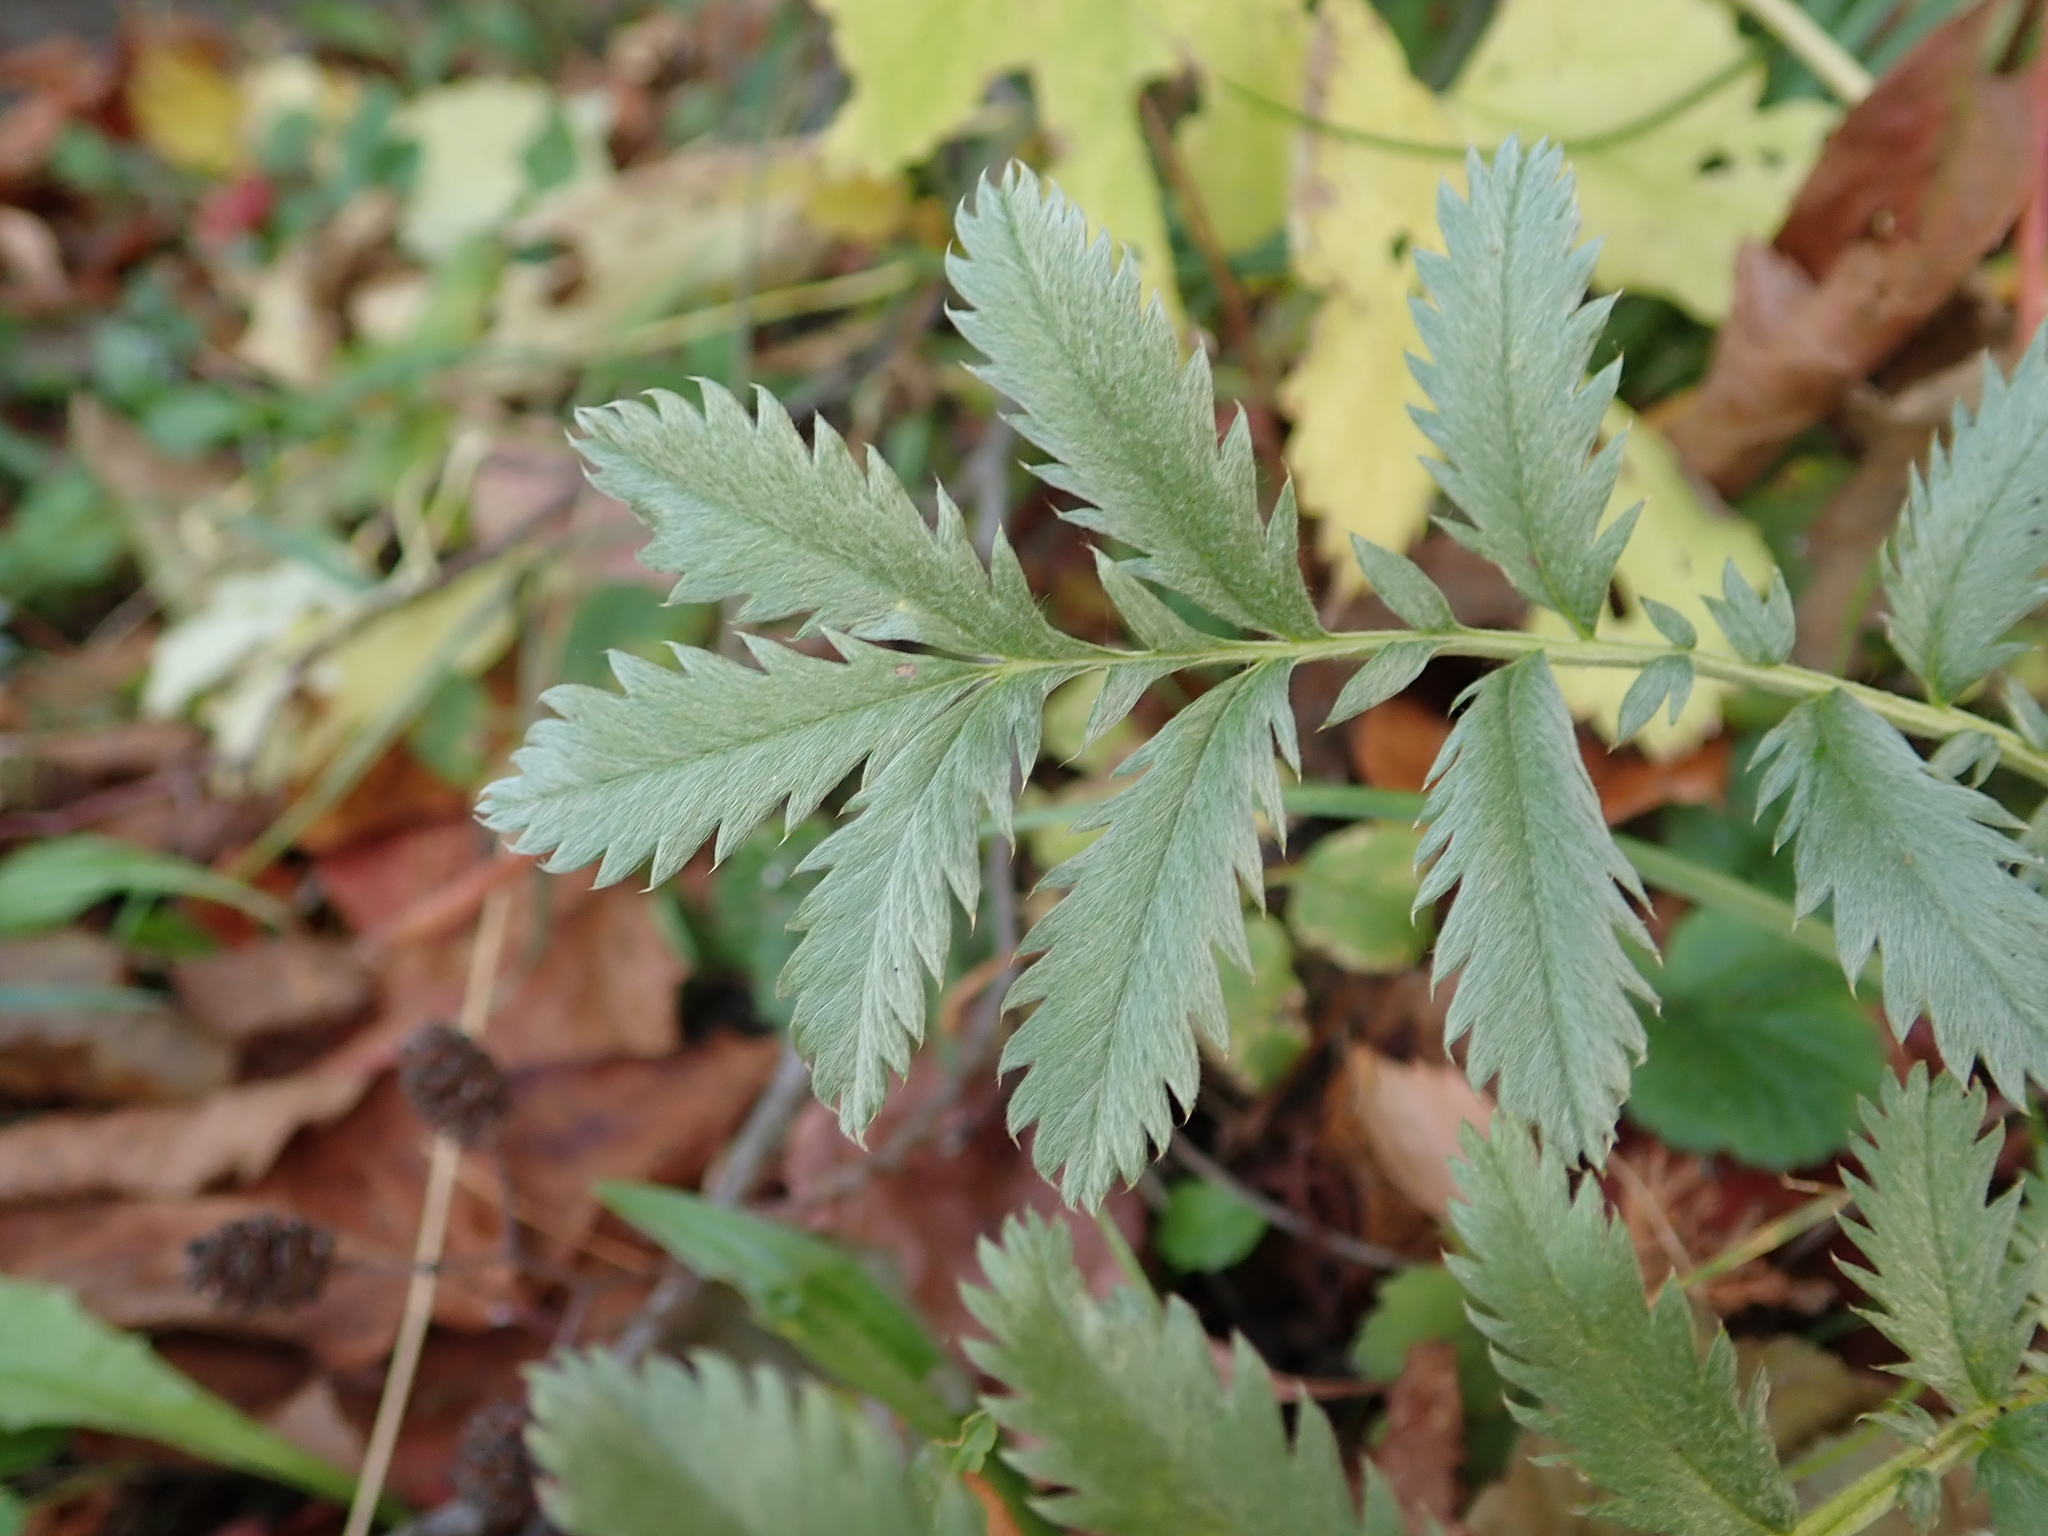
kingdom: Plantae
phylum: Tracheophyta
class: Magnoliopsida
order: Rosales
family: Rosaceae
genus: Argentina
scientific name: Argentina anserina
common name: Common silverweed
